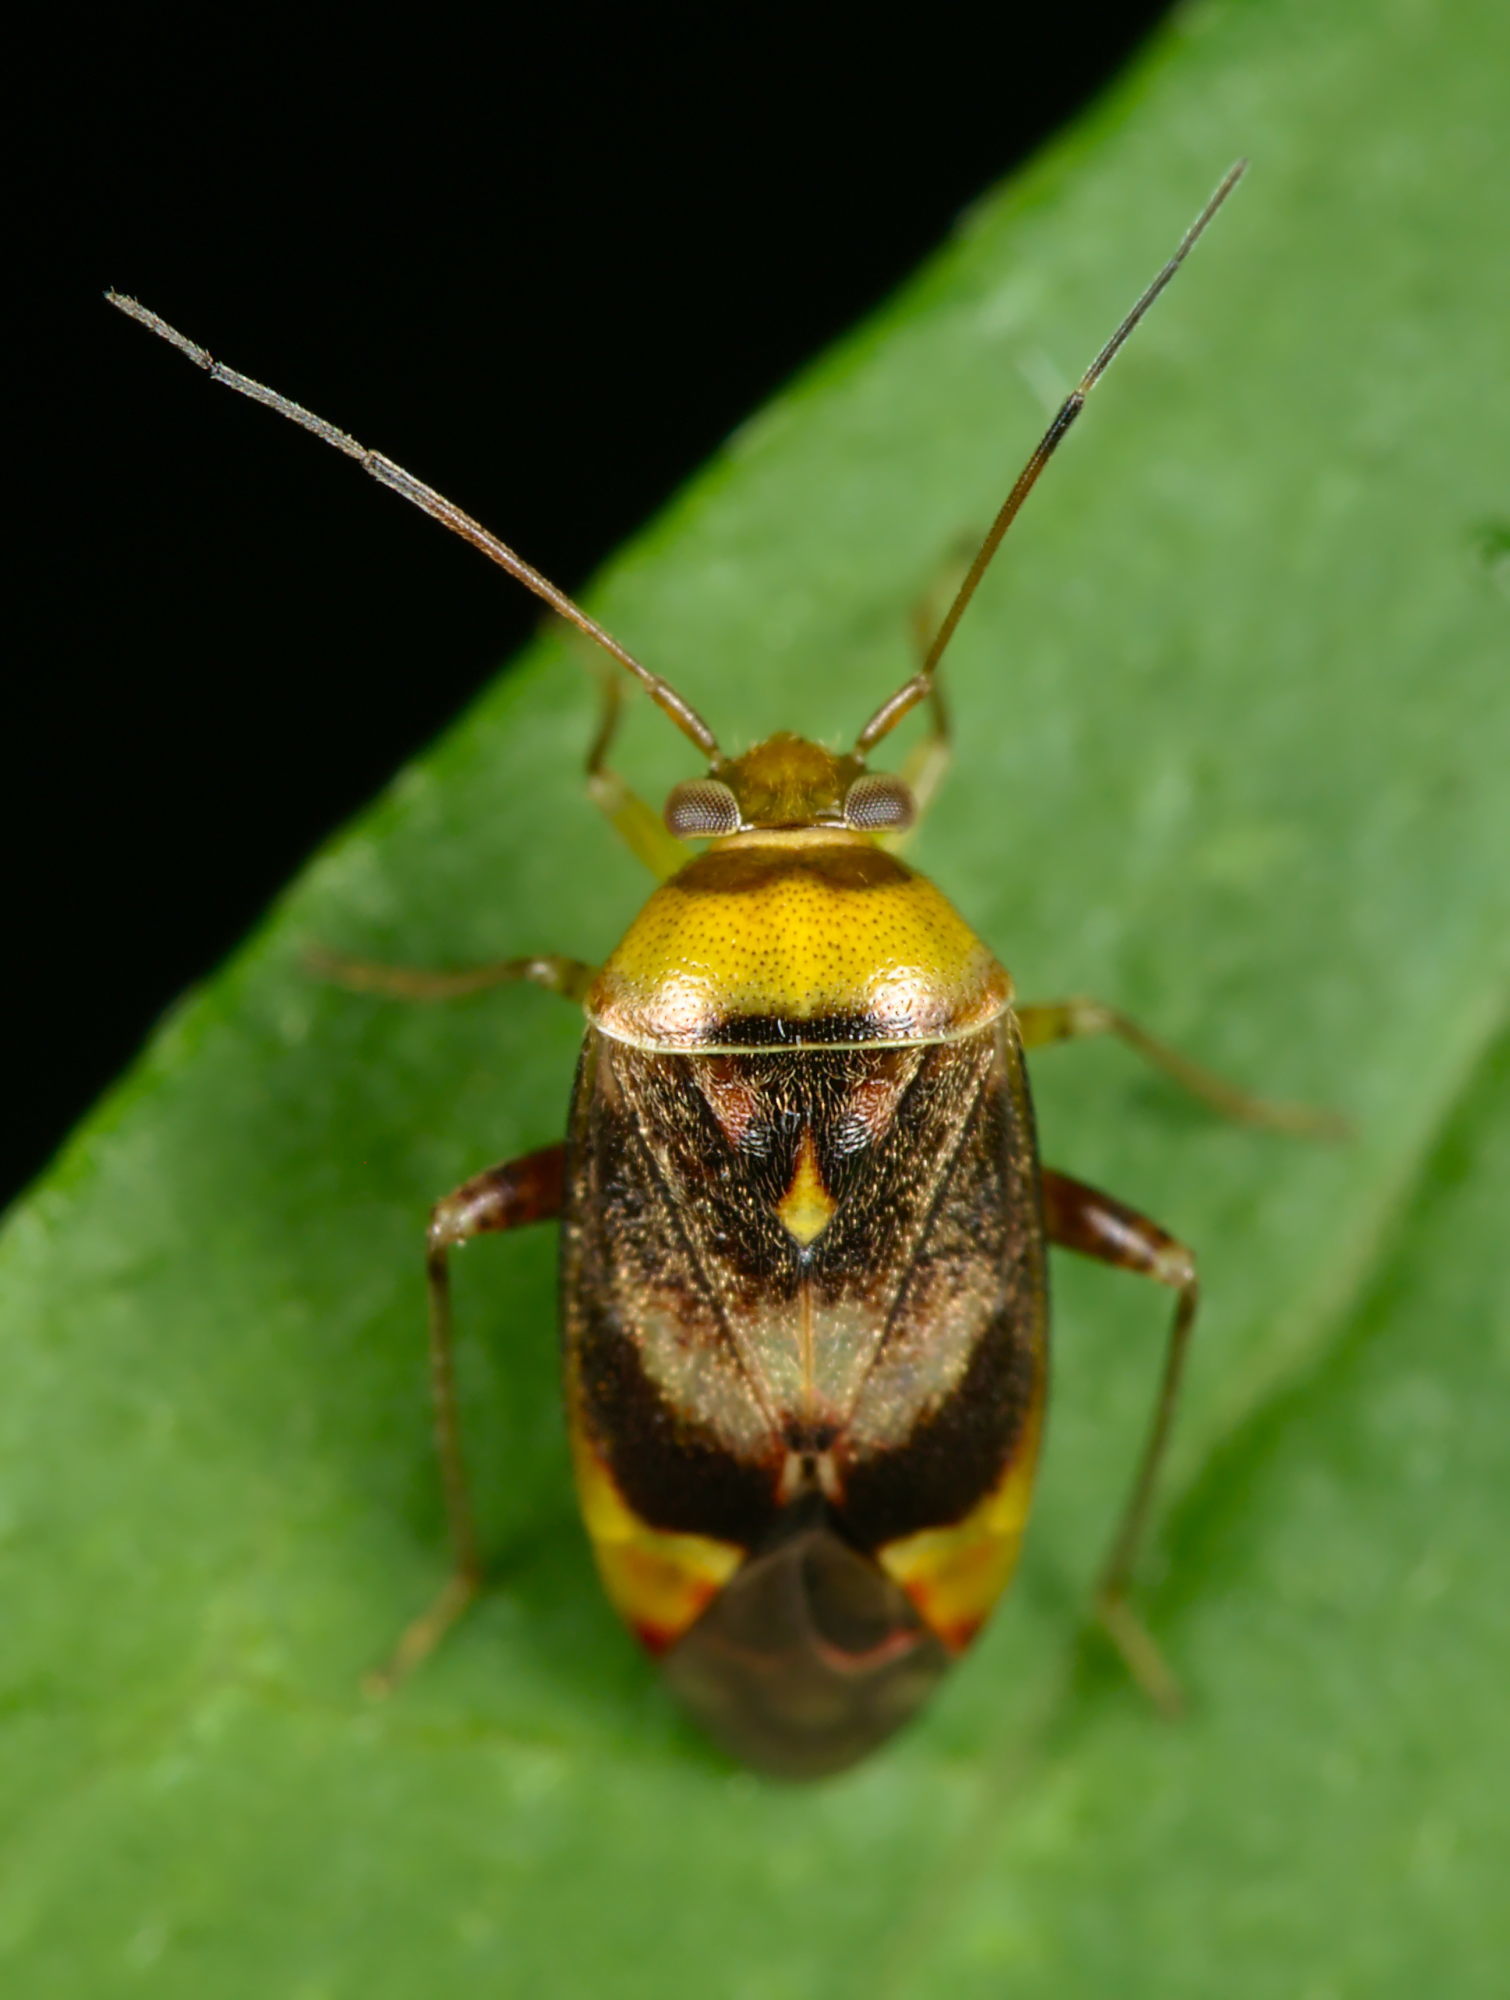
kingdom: Animalia
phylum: Arthropoda
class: Insecta
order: Hemiptera
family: Miridae
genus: Pinalitus
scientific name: Pinalitus viscicola
